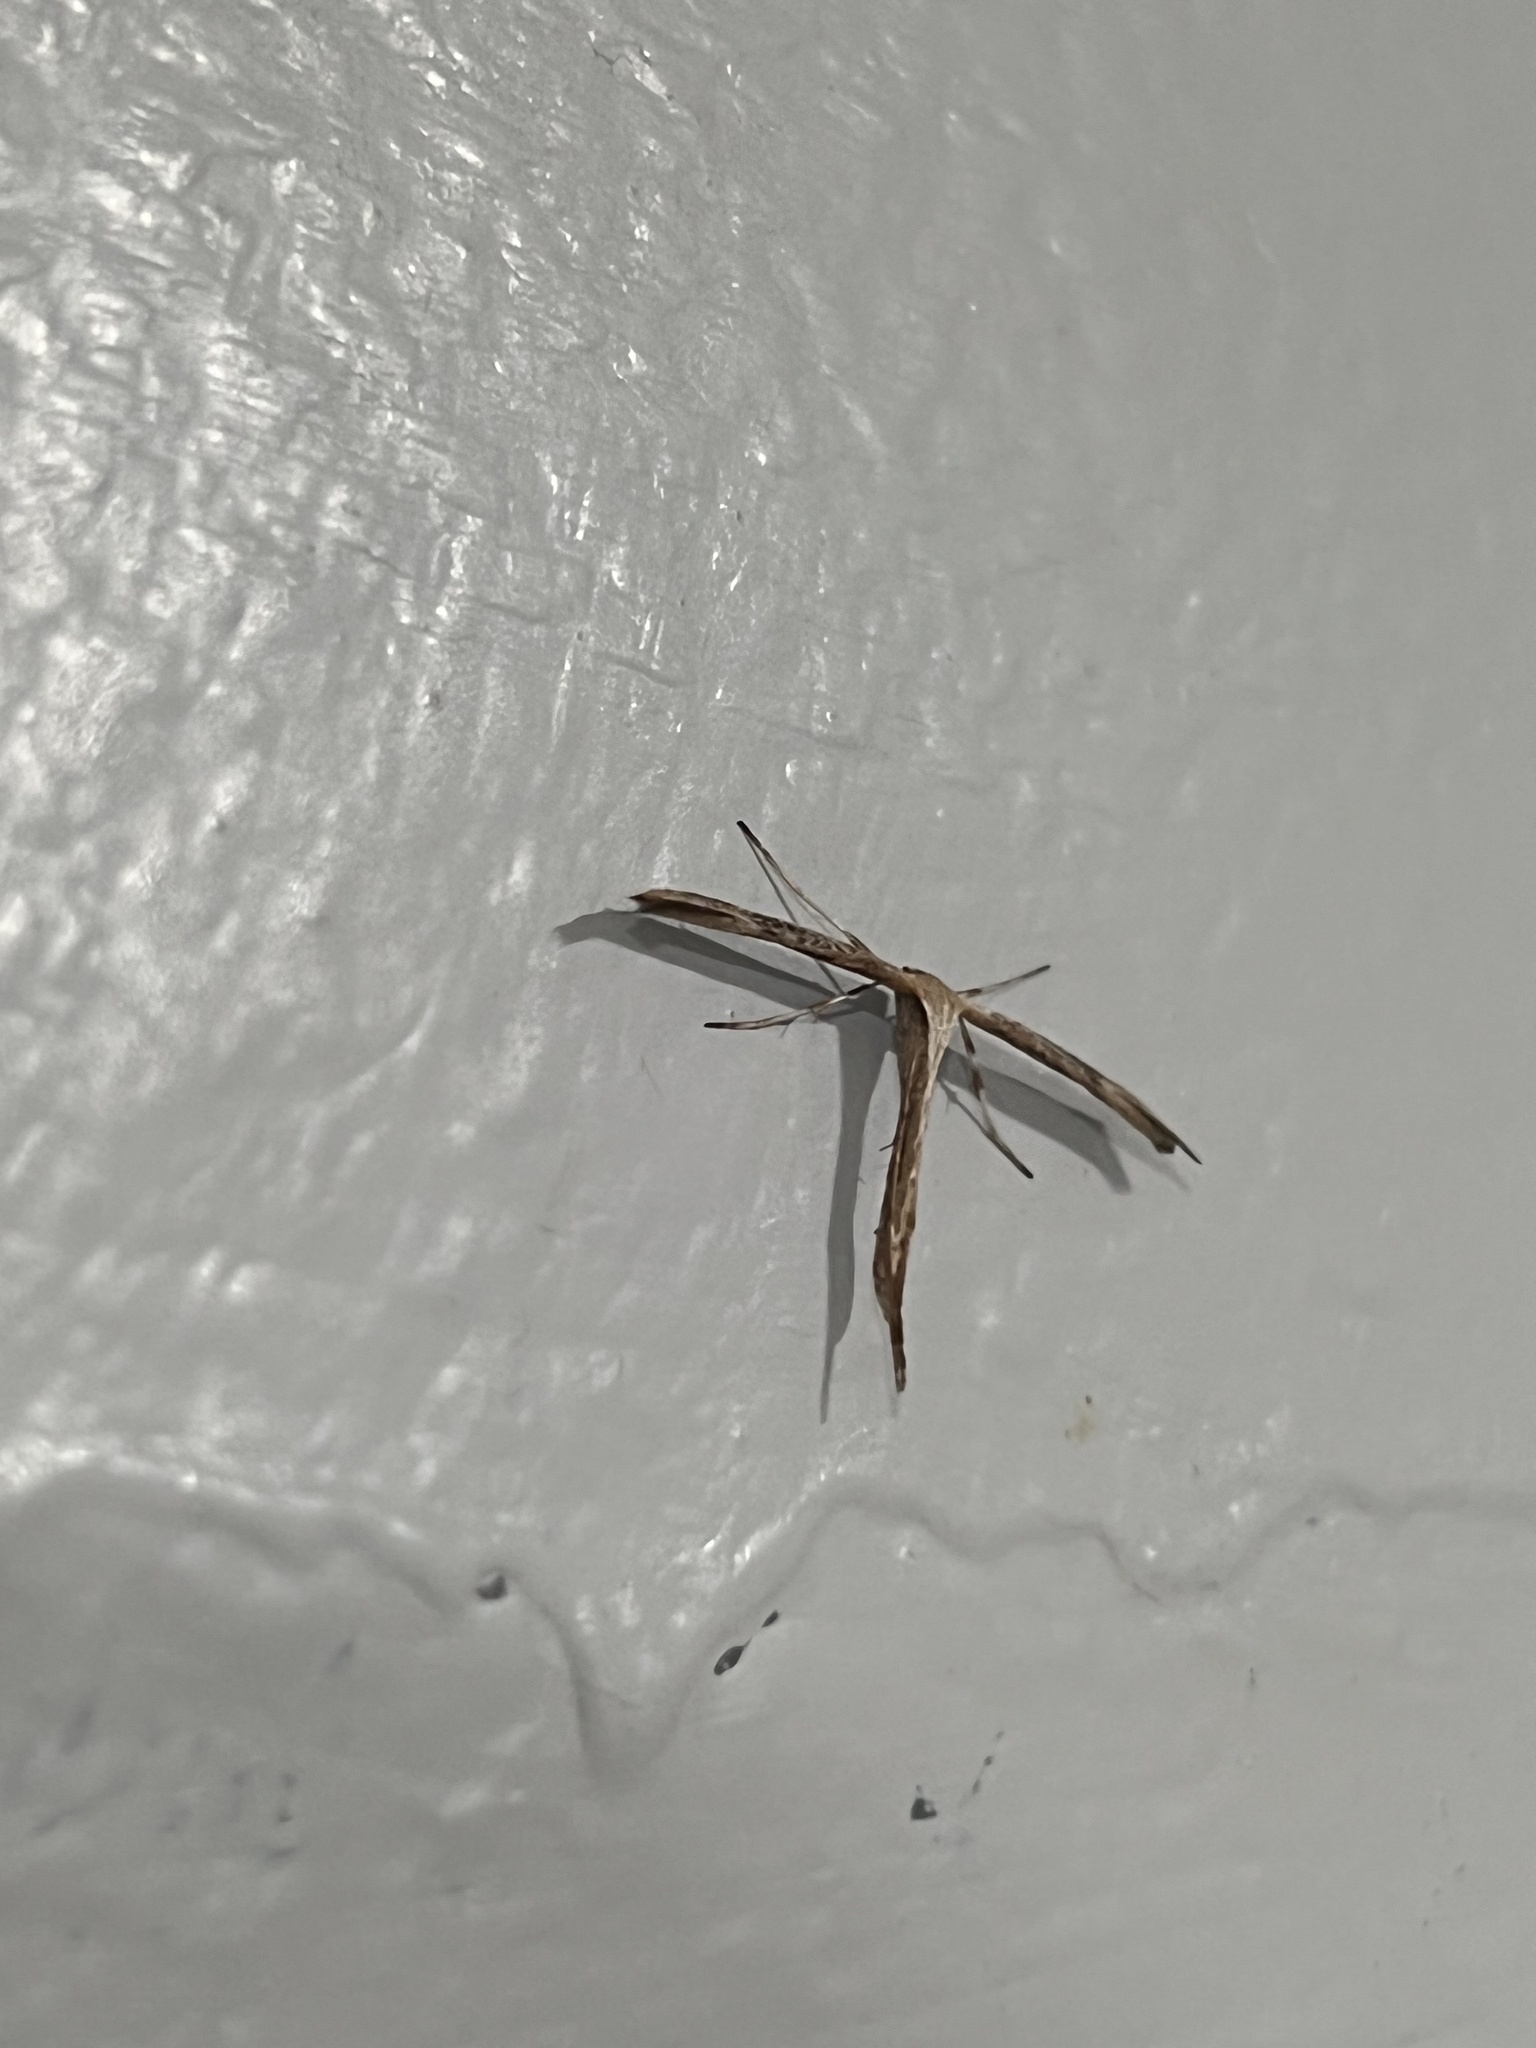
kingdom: Animalia
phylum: Arthropoda
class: Insecta
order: Lepidoptera
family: Pterophoridae
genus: Emmelina
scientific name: Emmelina monodactyla
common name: Common plume
